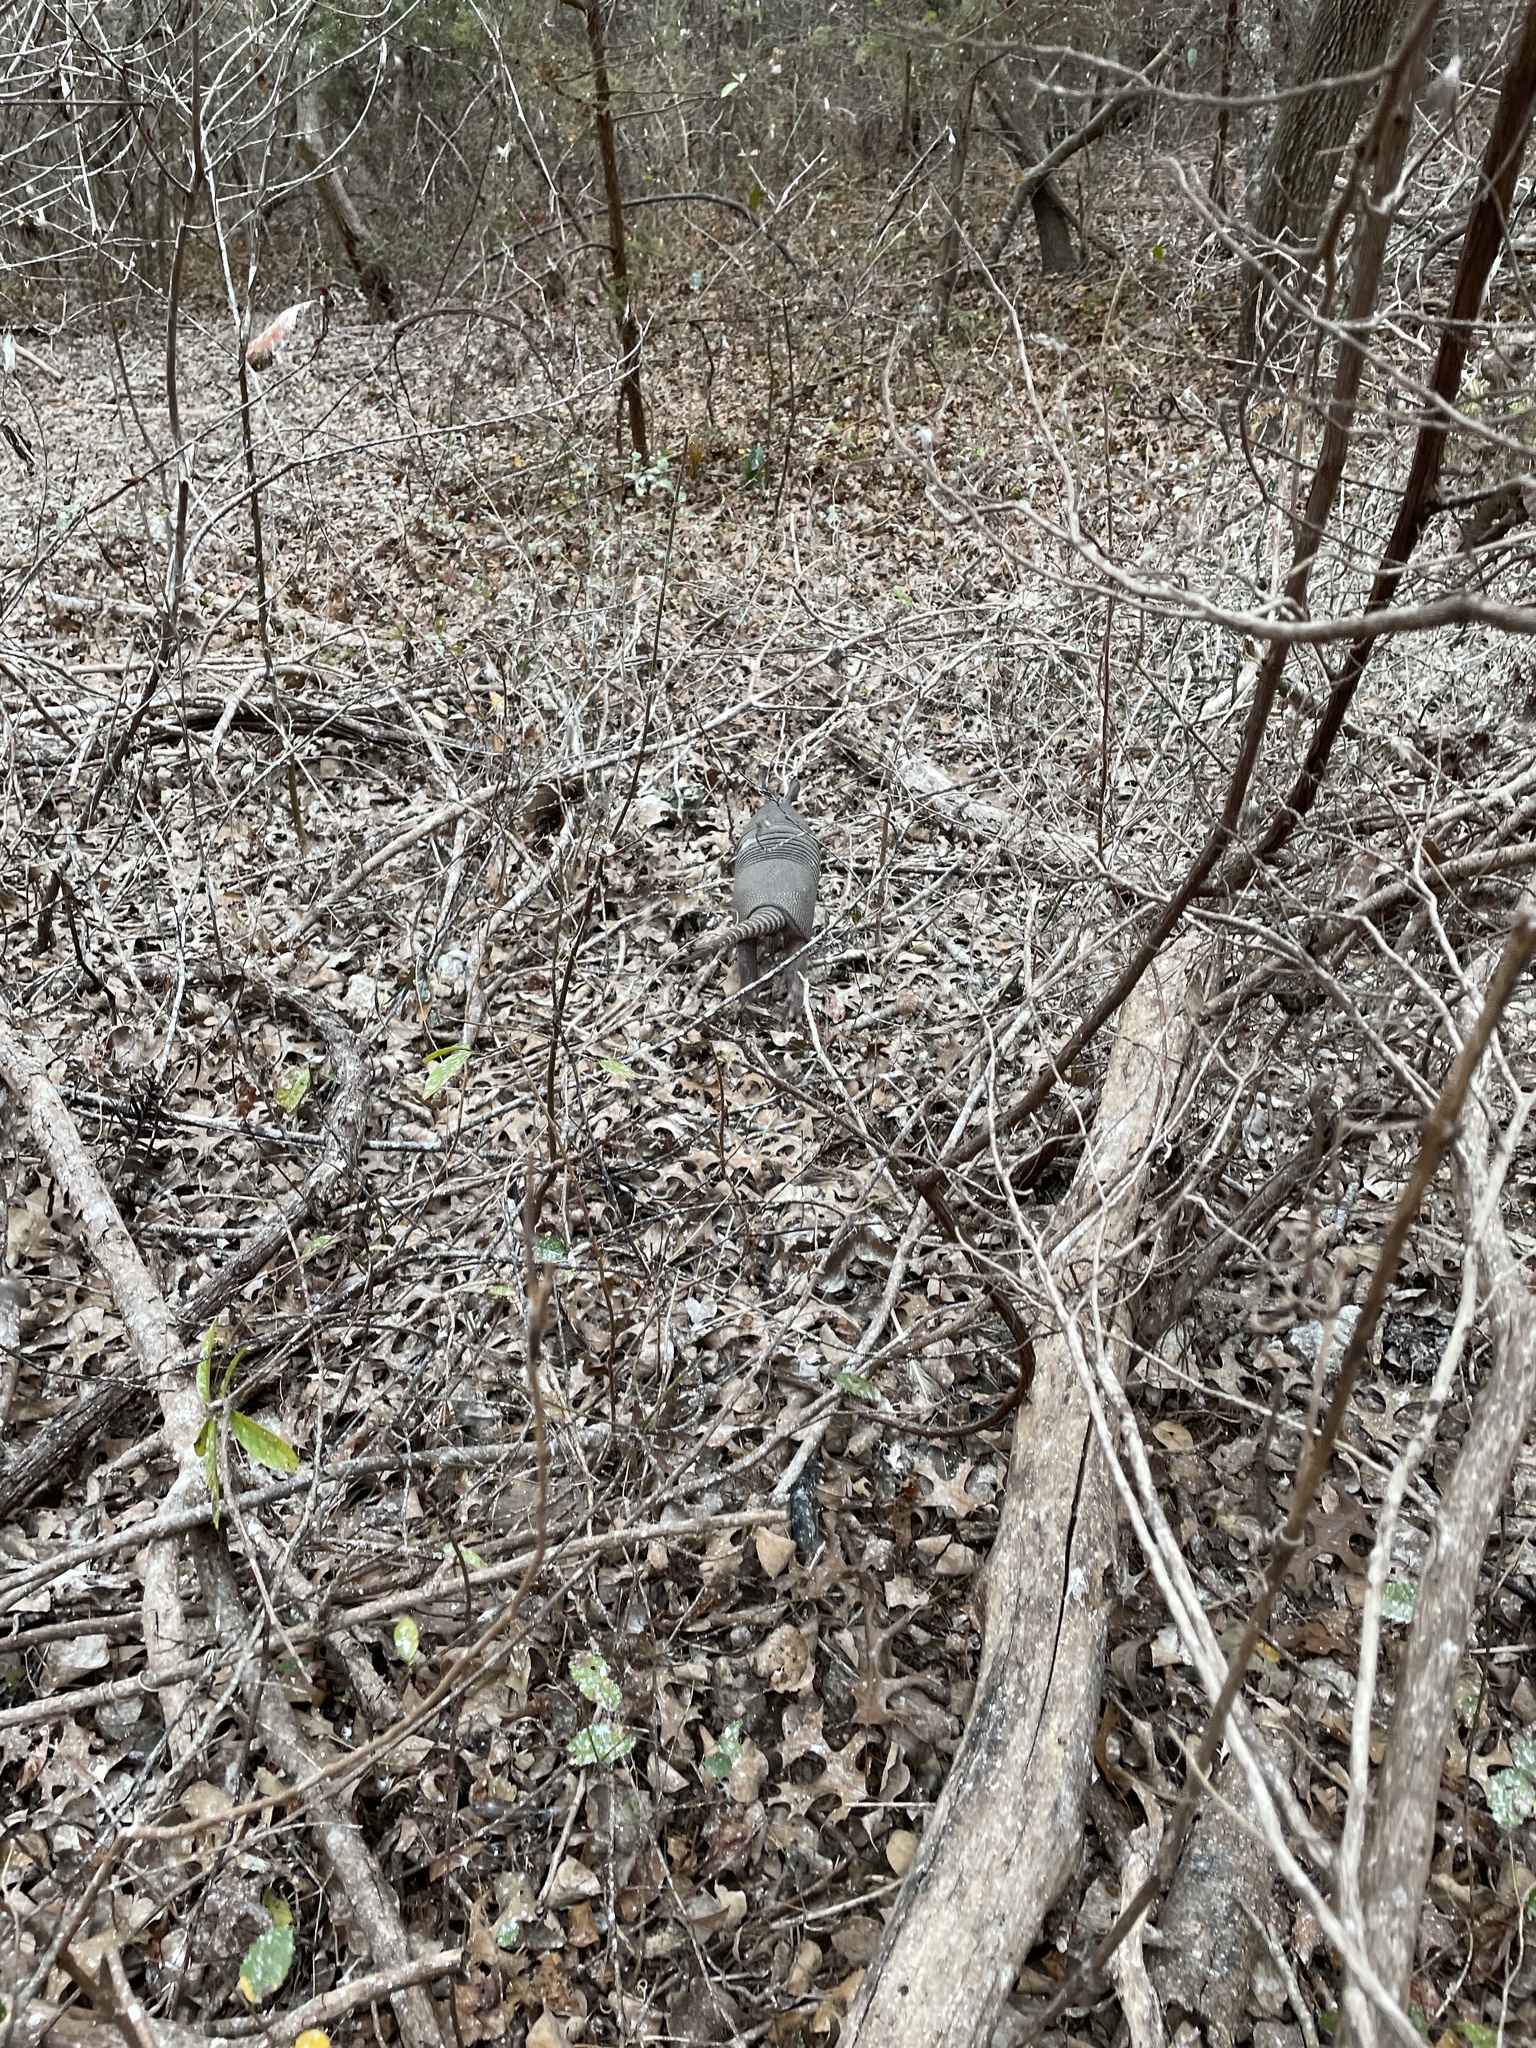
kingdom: Animalia
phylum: Chordata
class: Mammalia
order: Cingulata
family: Dasypodidae
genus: Dasypus
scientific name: Dasypus novemcinctus
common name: Nine-banded armadillo
